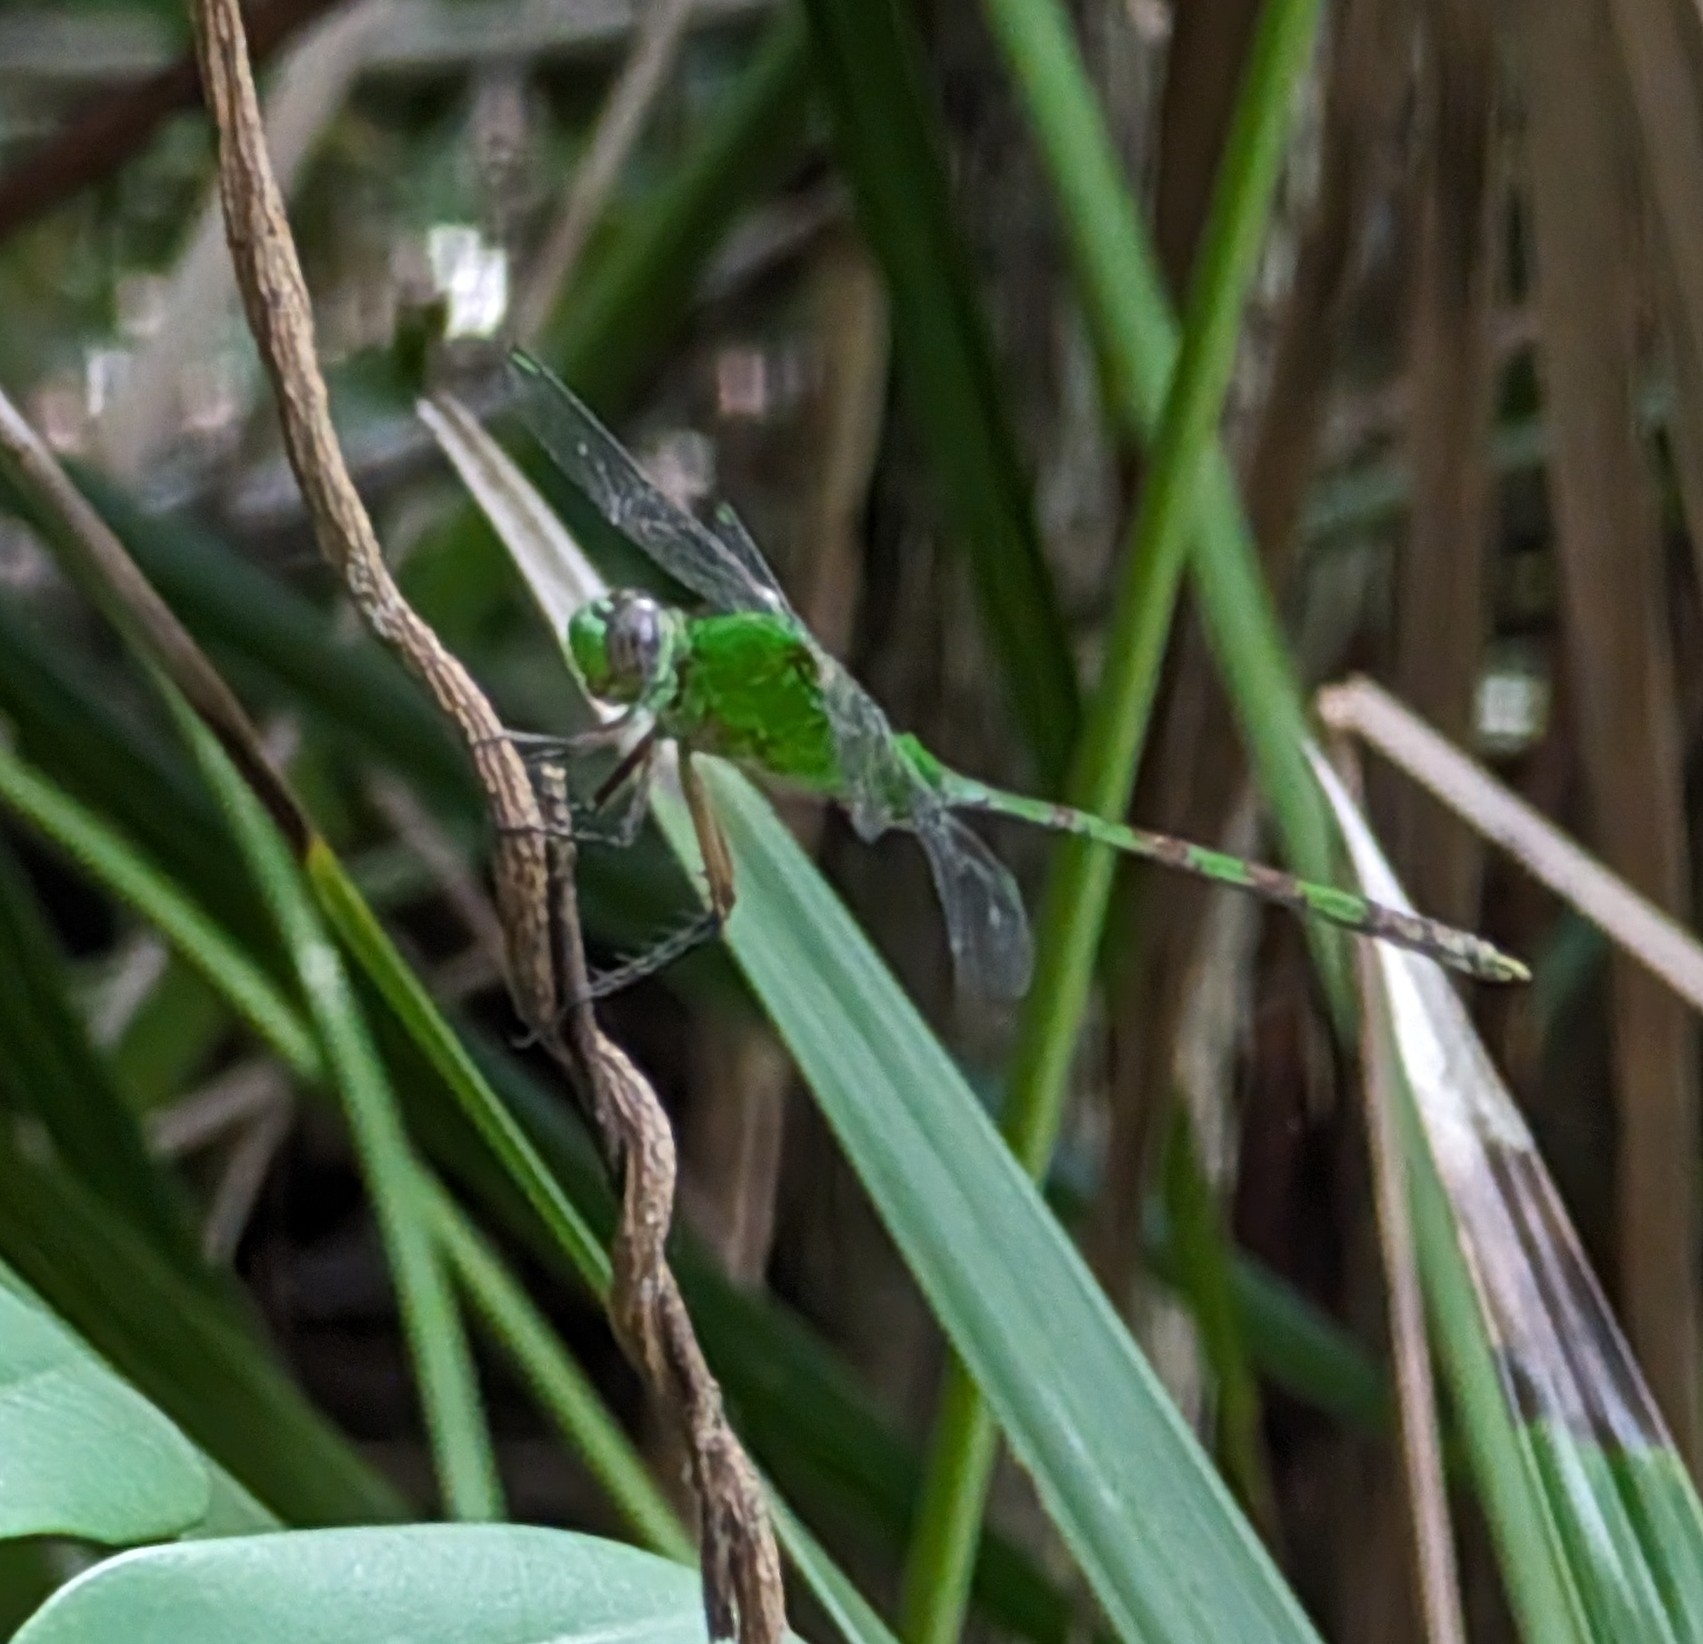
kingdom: Animalia
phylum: Arthropoda
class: Insecta
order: Odonata
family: Libellulidae
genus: Erythemis
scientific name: Erythemis vesiculosa
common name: Great pondhawk
